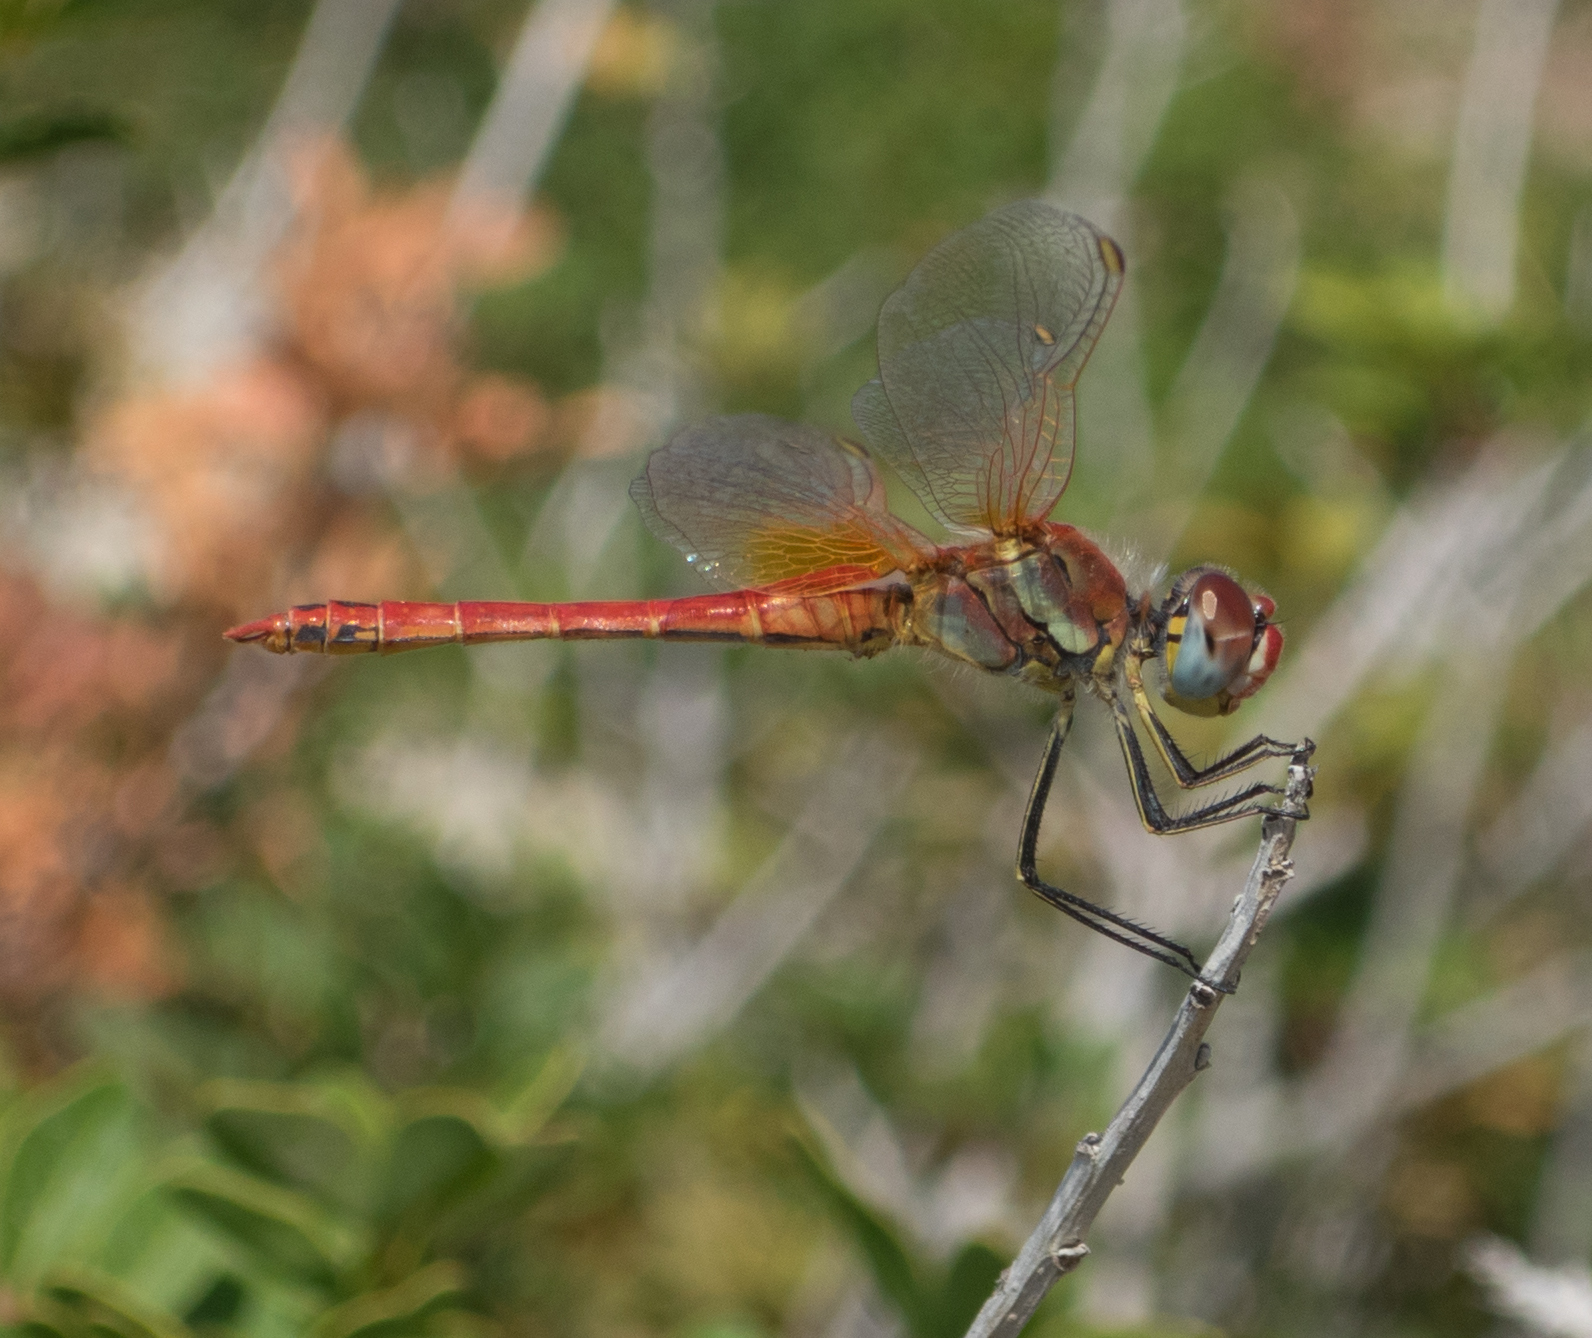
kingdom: Animalia
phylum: Arthropoda
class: Insecta
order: Odonata
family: Libellulidae
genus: Sympetrum
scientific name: Sympetrum fonscolombii
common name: Red-veined darter
